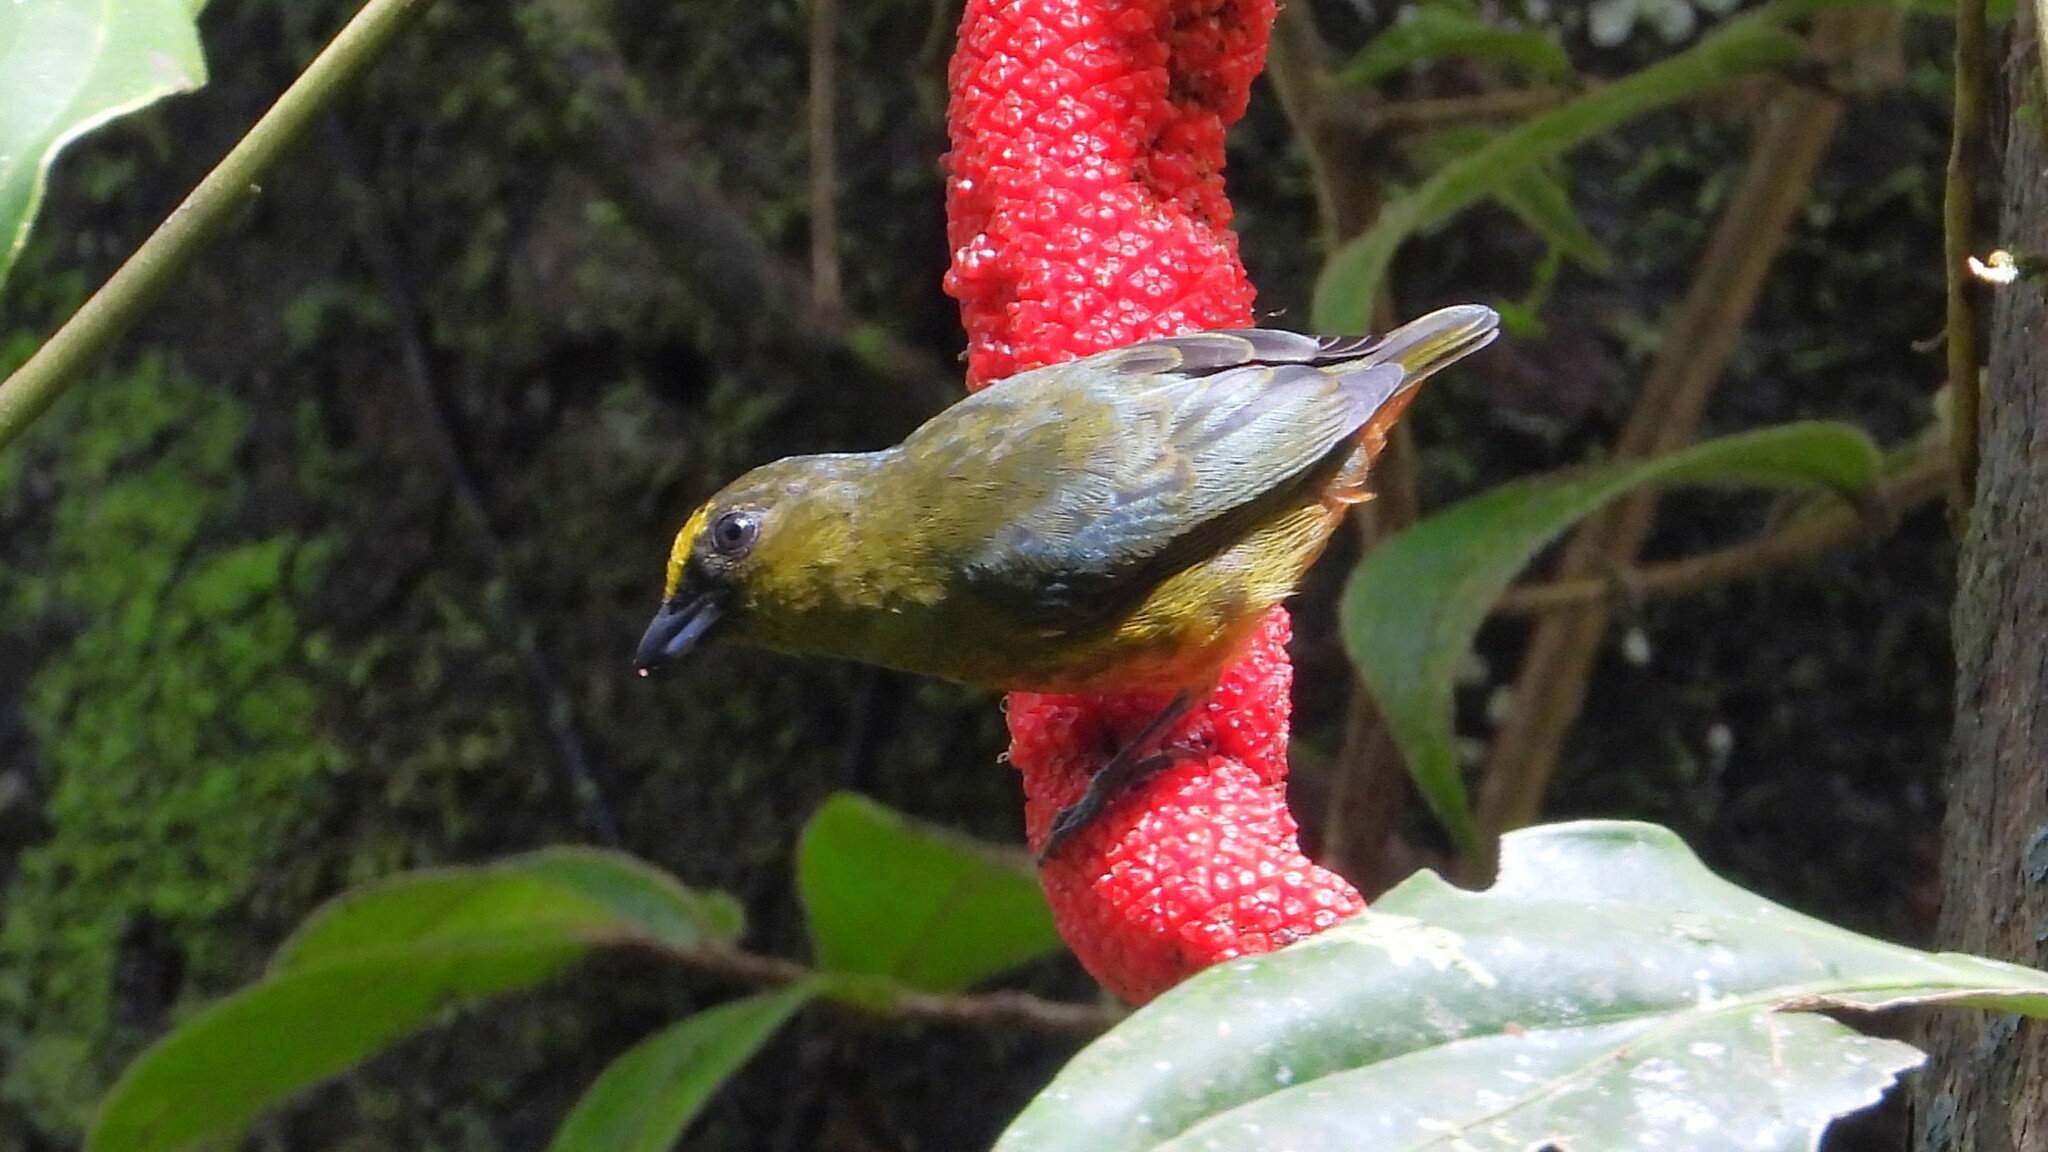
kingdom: Animalia
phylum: Chordata
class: Aves
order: Passeriformes
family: Fringillidae
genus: Euphonia
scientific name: Euphonia gouldi
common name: Olive-backed euphonia
